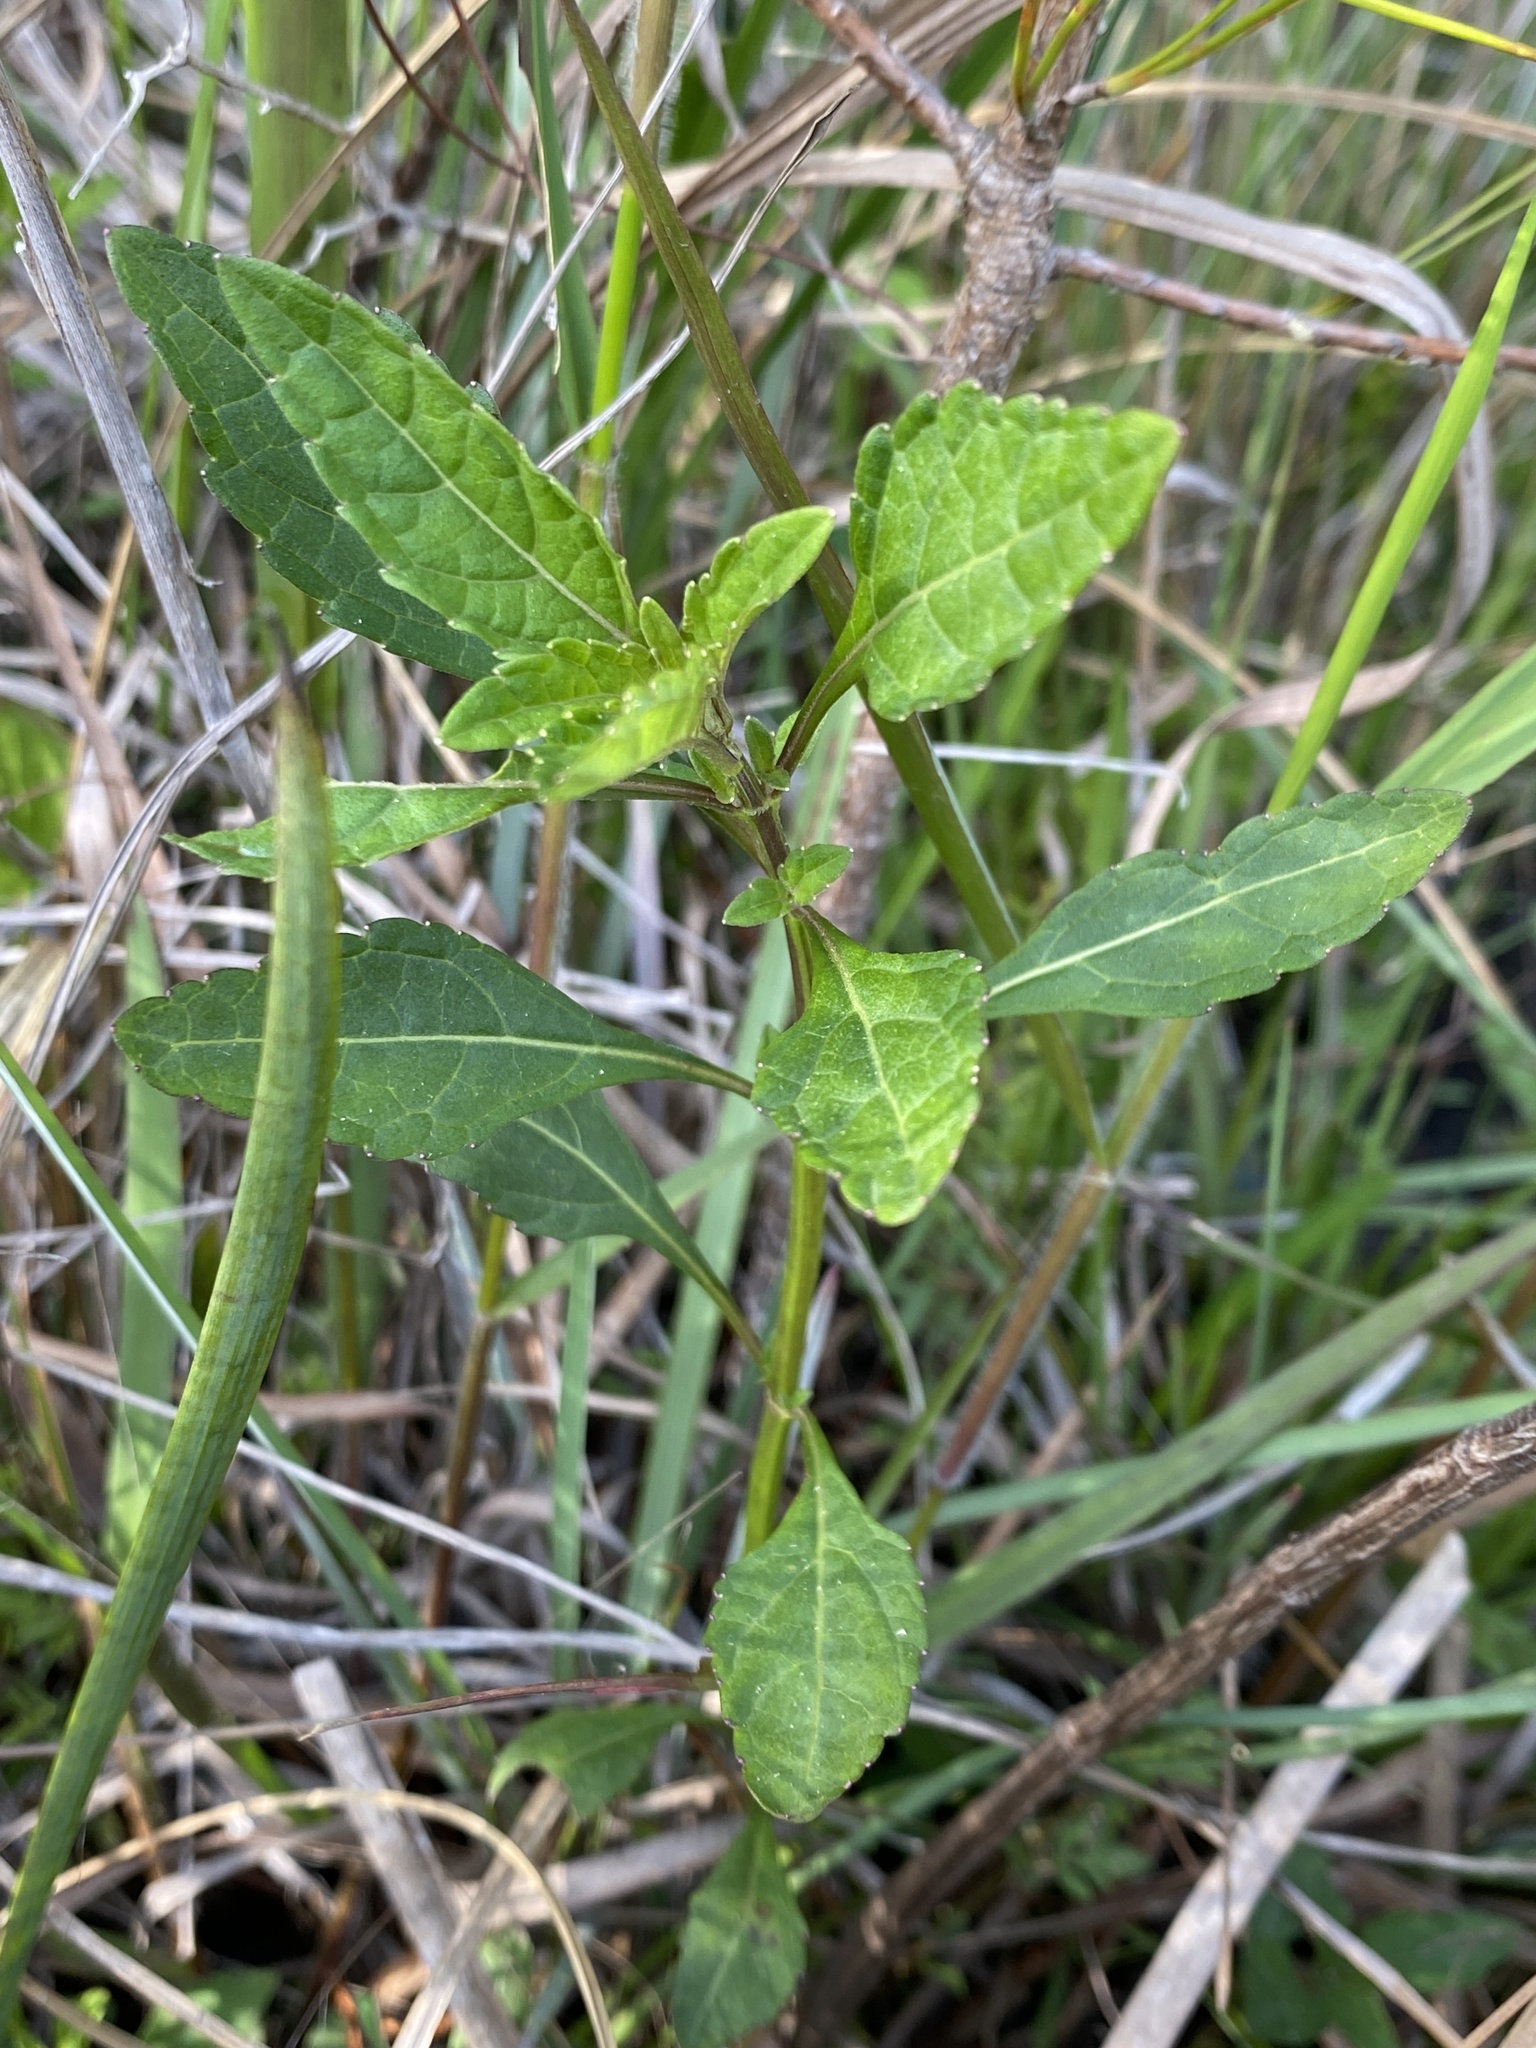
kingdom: Plantae
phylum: Tracheophyta
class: Magnoliopsida
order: Lamiales
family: Lamiaceae
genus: Hyptis
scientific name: Hyptis alata
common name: Cluster bush-mint
